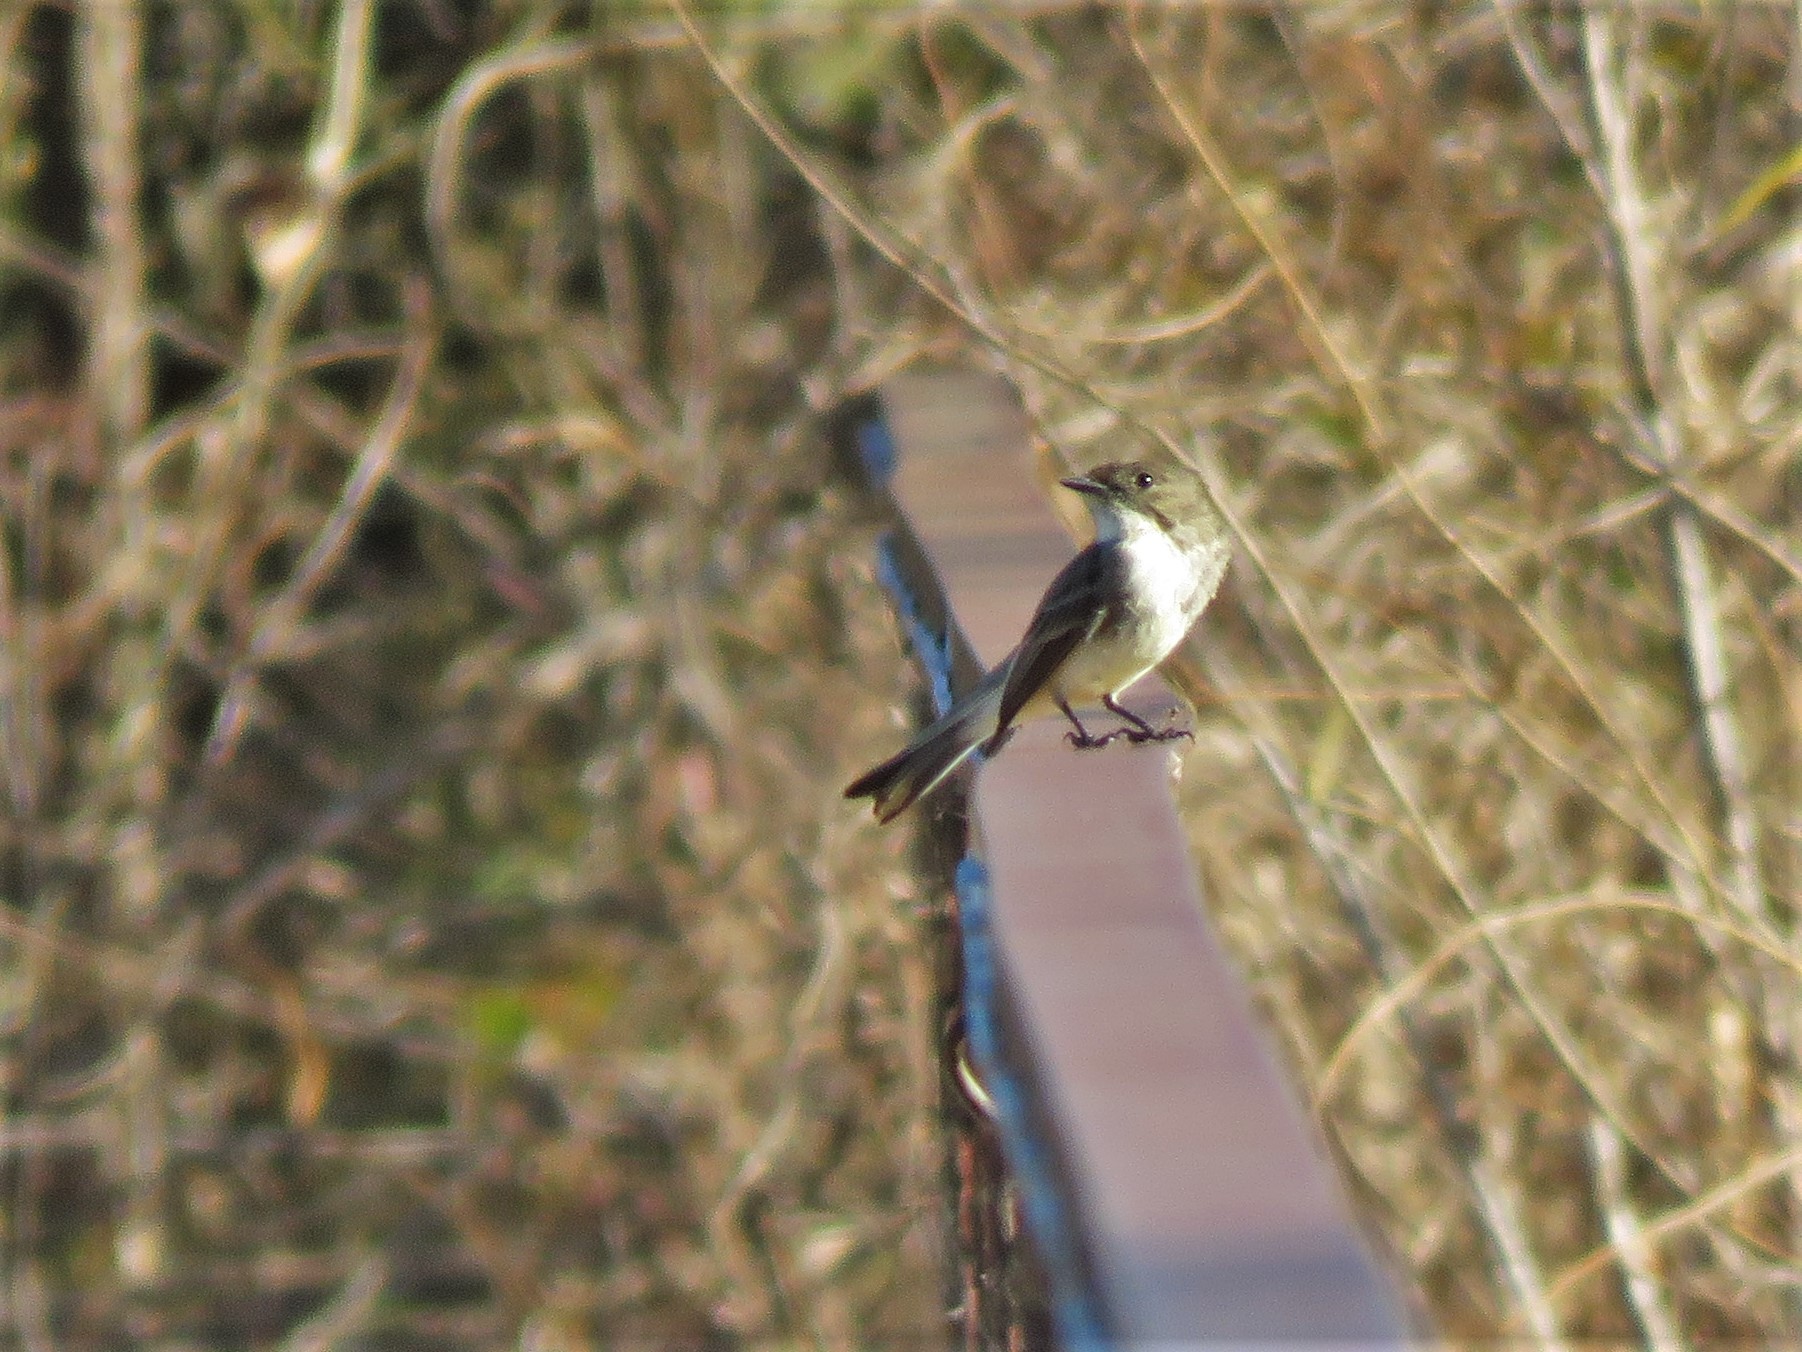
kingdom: Animalia
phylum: Chordata
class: Aves
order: Passeriformes
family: Tyrannidae
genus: Sayornis
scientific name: Sayornis phoebe
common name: Eastern phoebe
